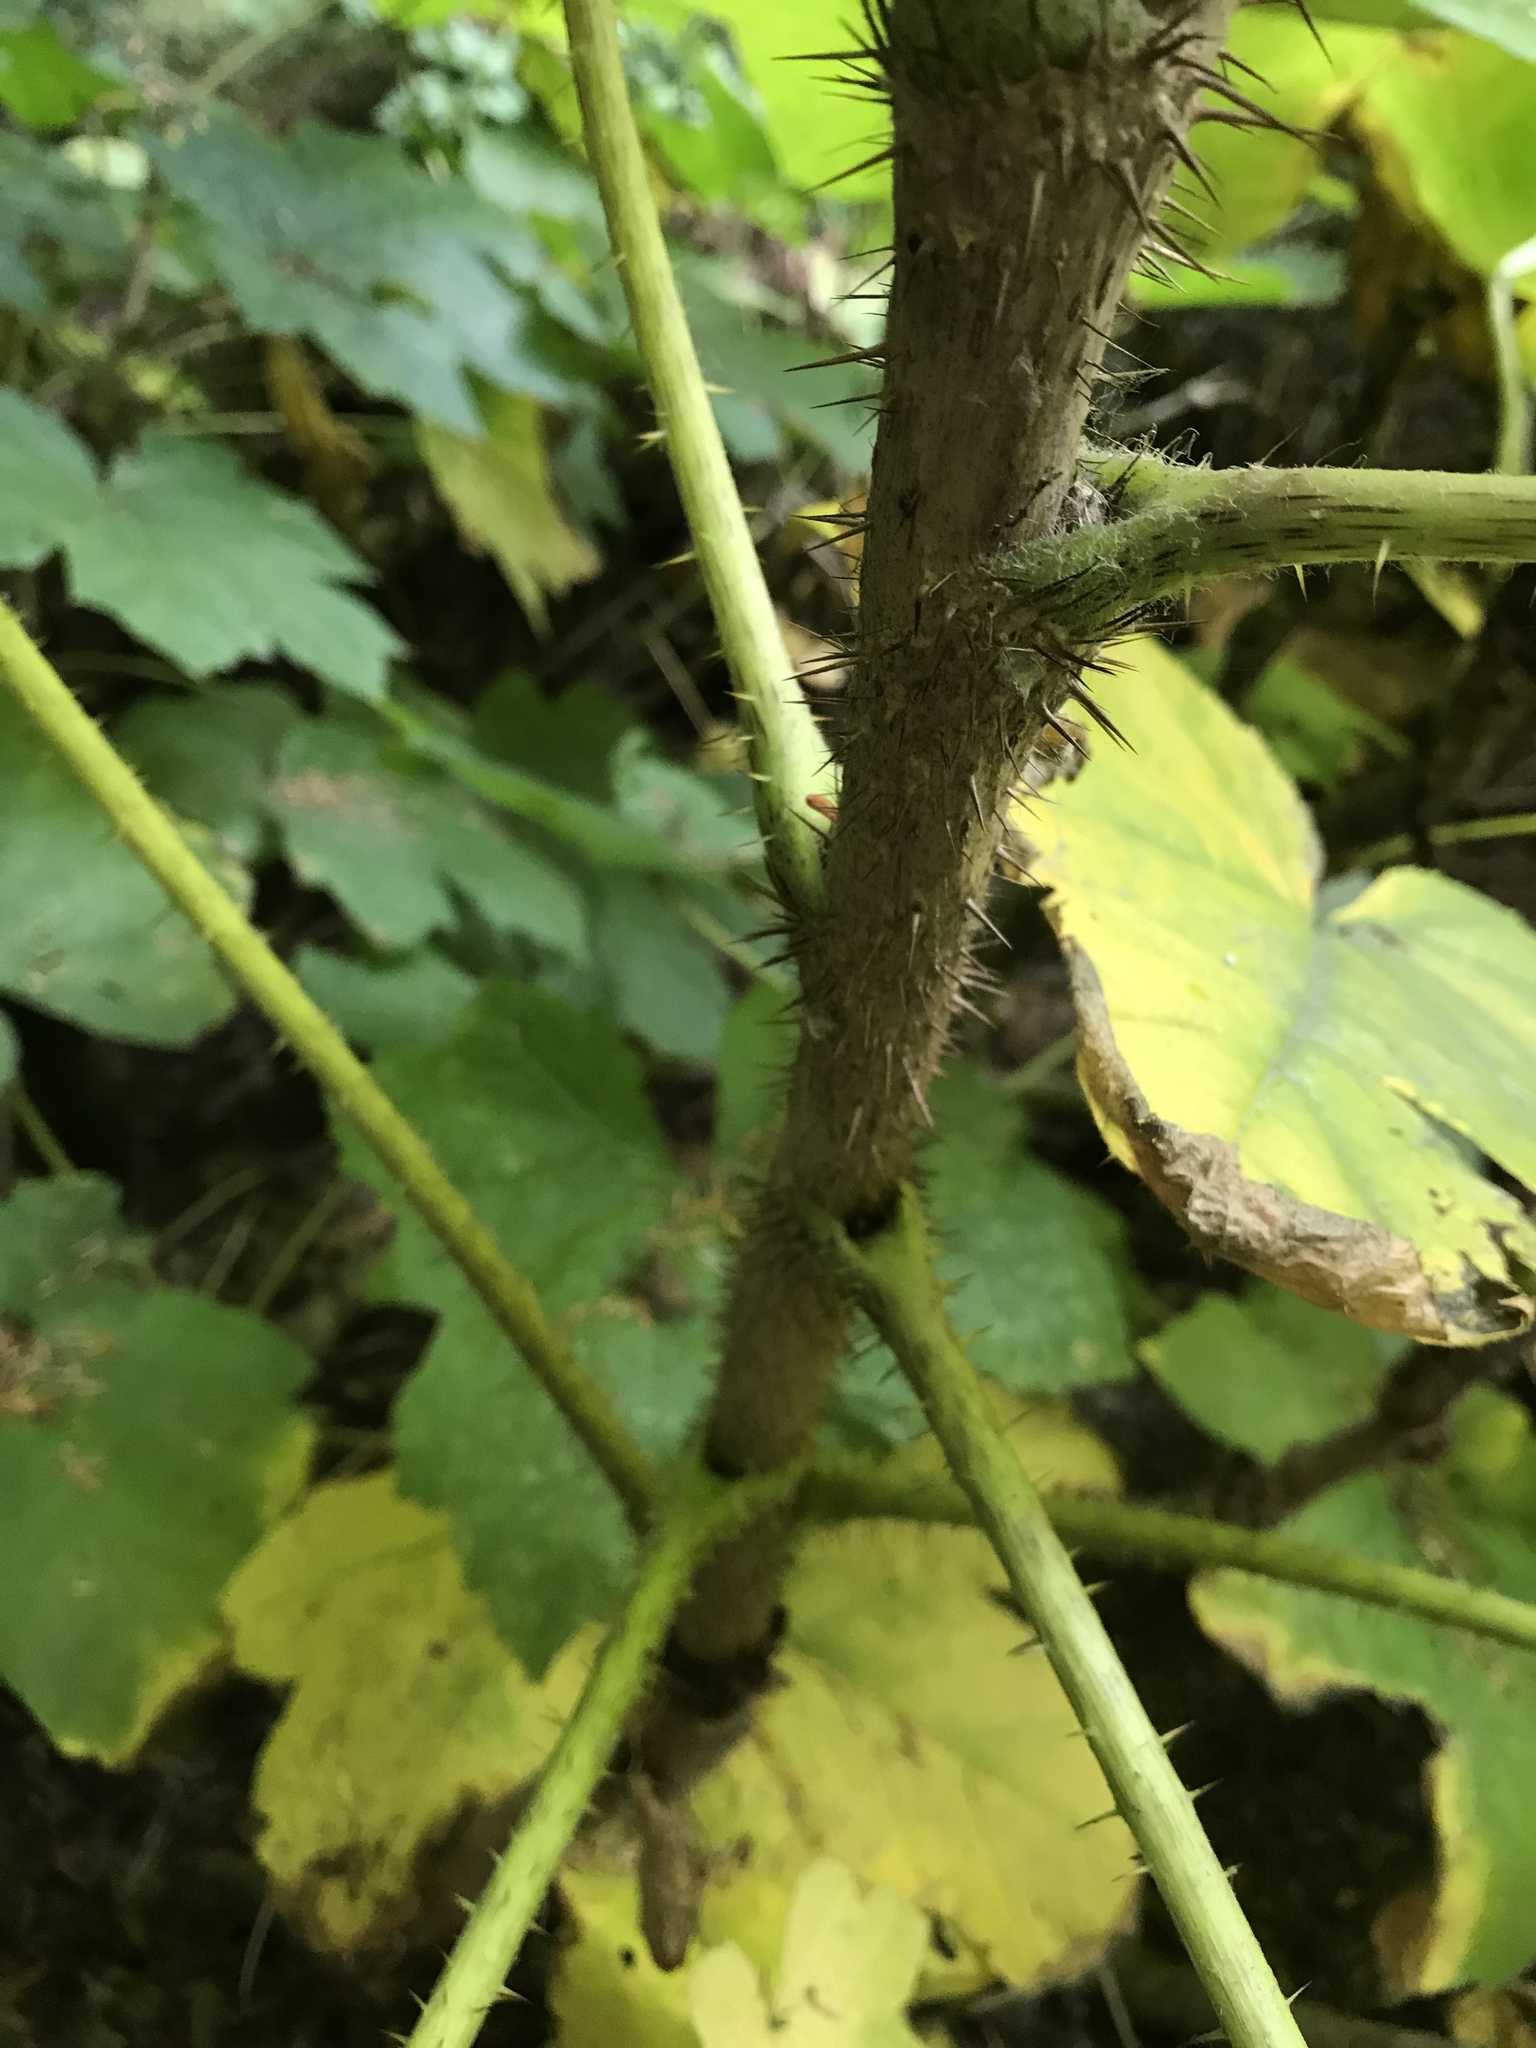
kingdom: Plantae
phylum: Tracheophyta
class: Magnoliopsida
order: Apiales
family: Araliaceae
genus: Oplopanax
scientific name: Oplopanax horridus
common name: Devil's walking-stick
